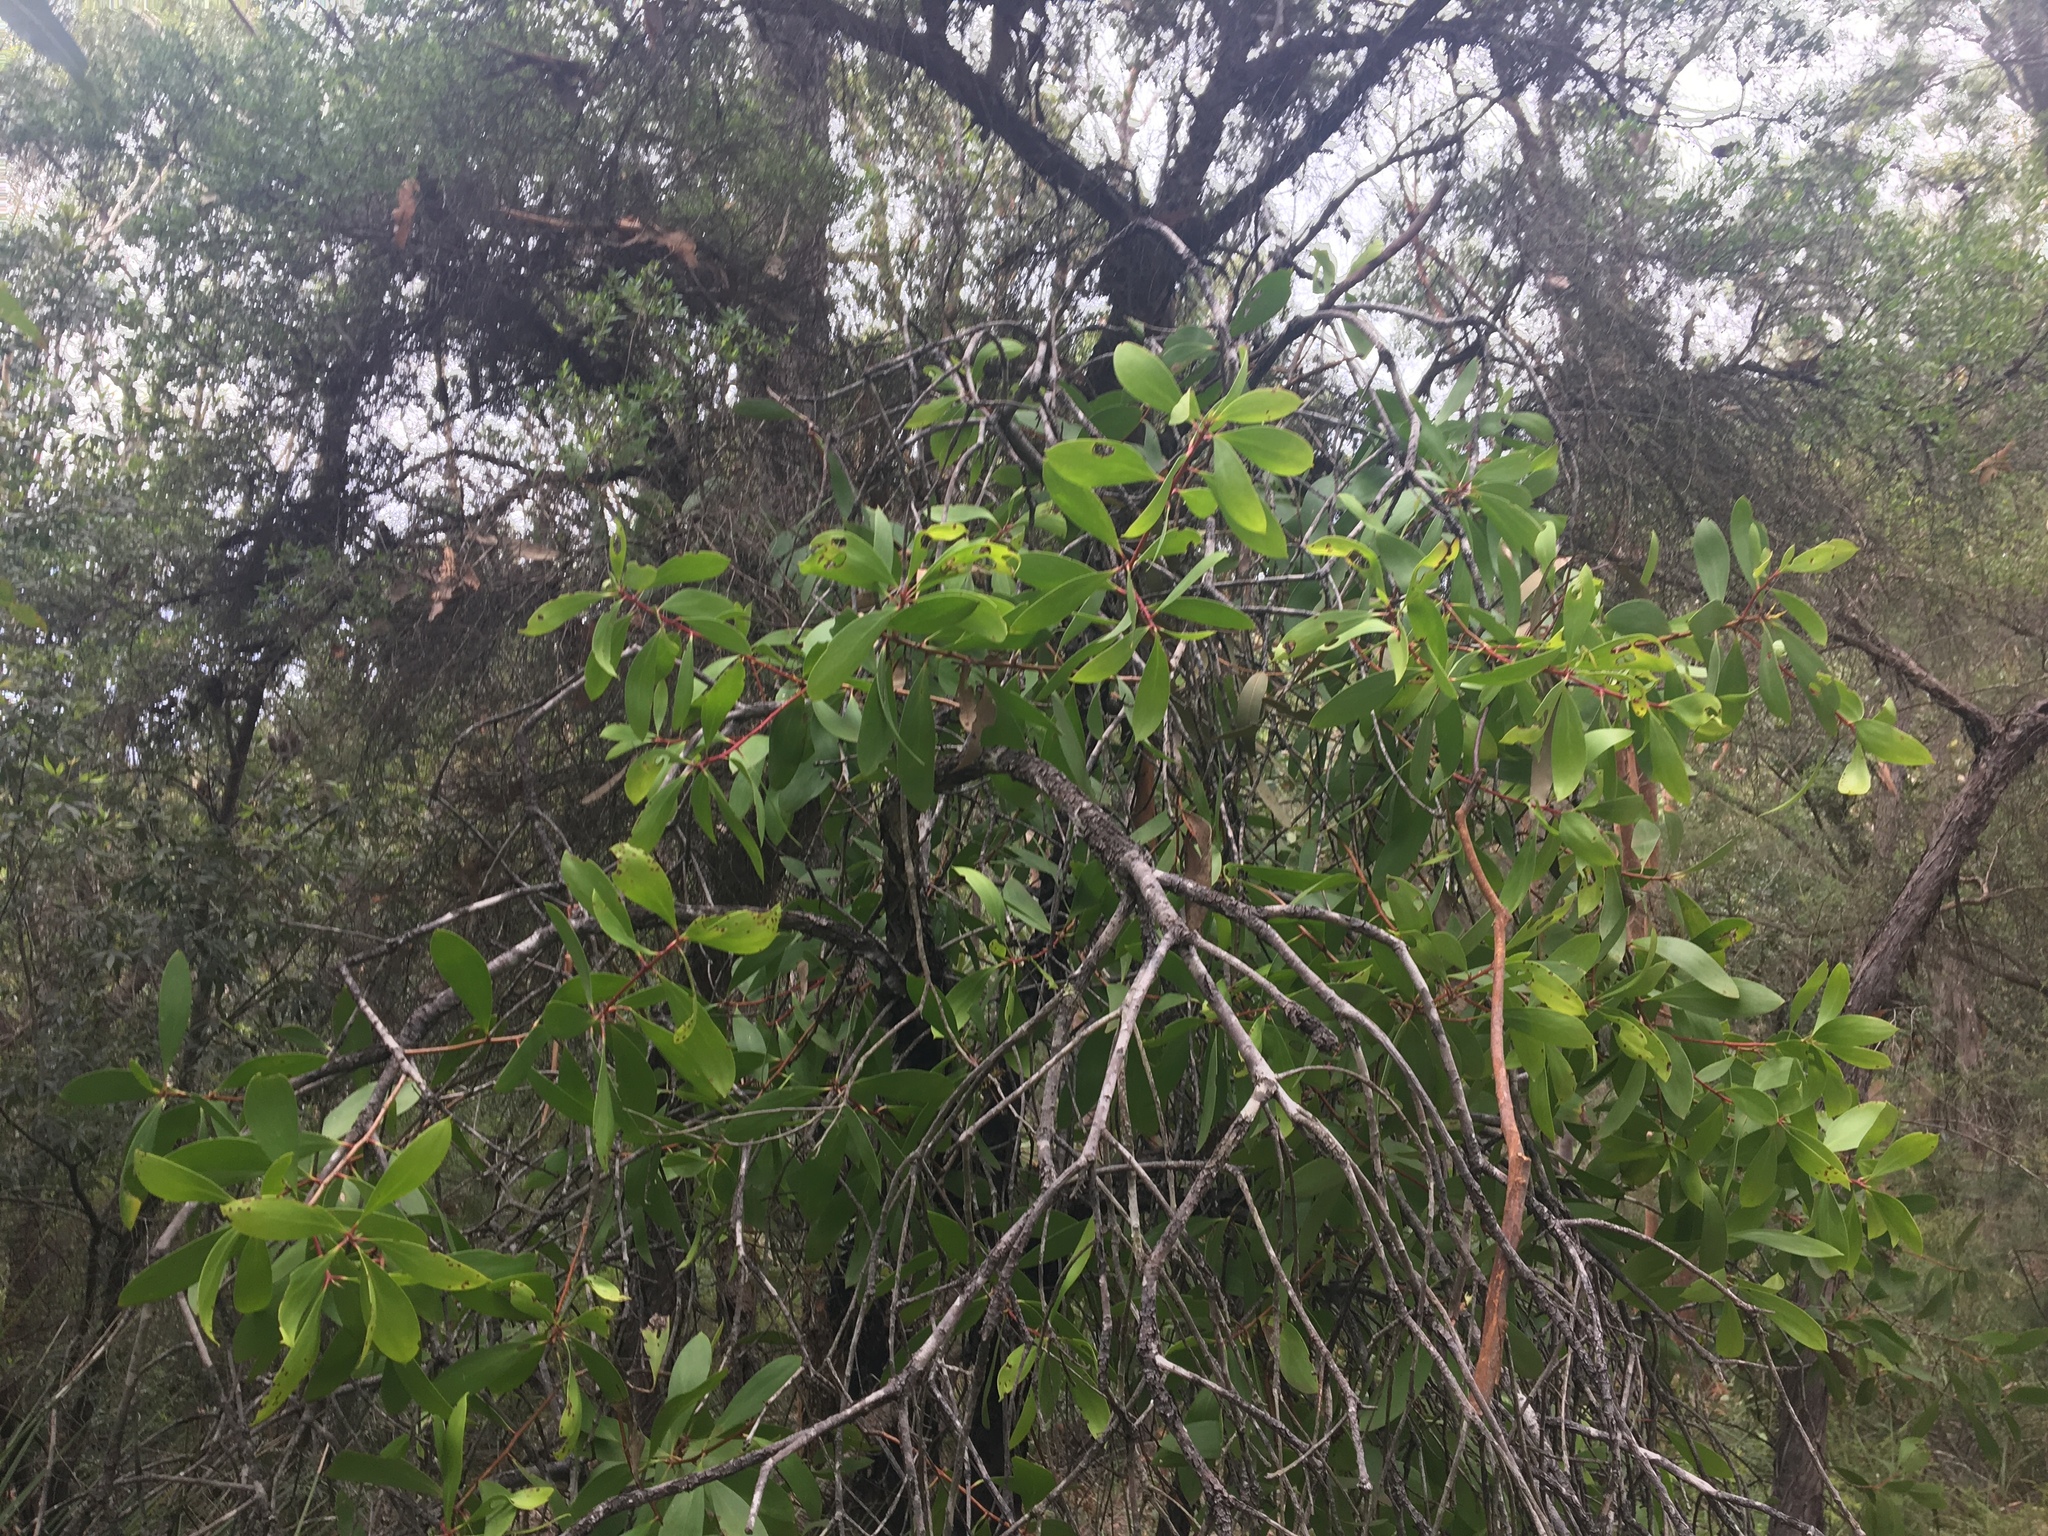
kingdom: Plantae
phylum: Tracheophyta
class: Magnoliopsida
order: Proteales
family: Proteaceae
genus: Persoonia
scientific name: Persoonia levis
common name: Smooth geebung
